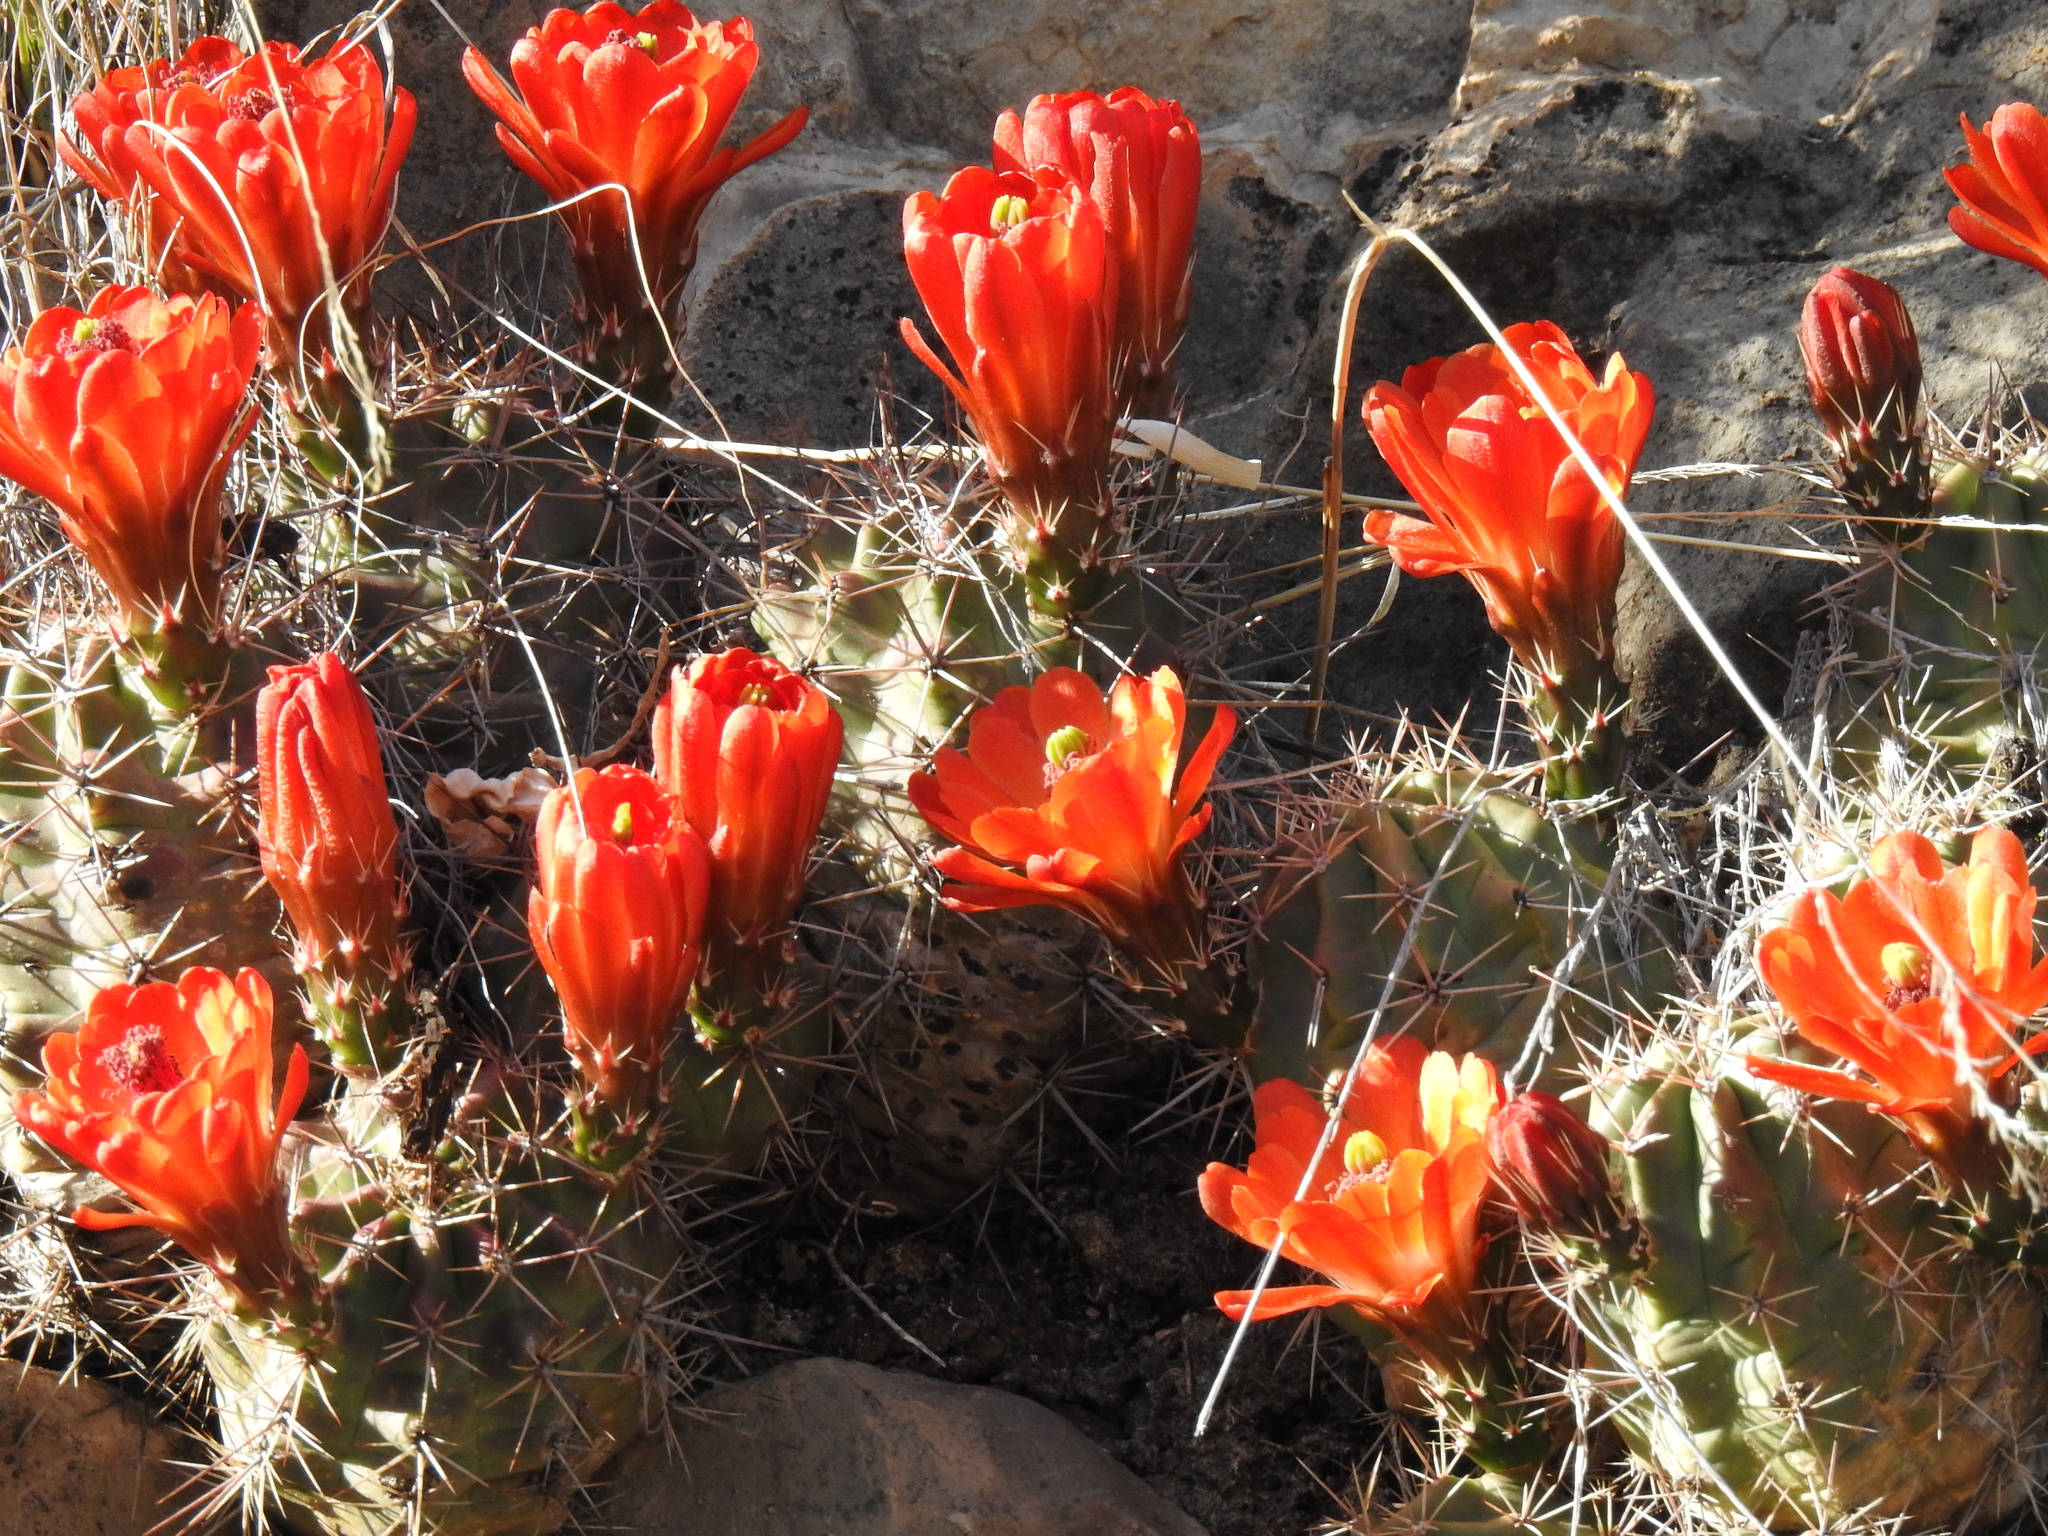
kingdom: Plantae
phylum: Tracheophyta
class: Magnoliopsida
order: Caryophyllales
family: Cactaceae
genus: Echinocereus
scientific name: Echinocereus coccineus
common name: Scarlet hedgehog cactus
